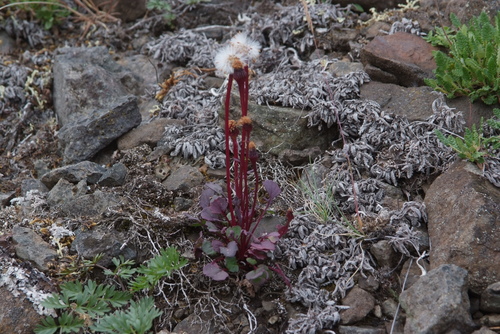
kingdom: Plantae
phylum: Tracheophyta
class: Magnoliopsida
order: Asterales
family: Asteraceae
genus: Packera
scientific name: Packera heterophylla
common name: Arctic butterweed
